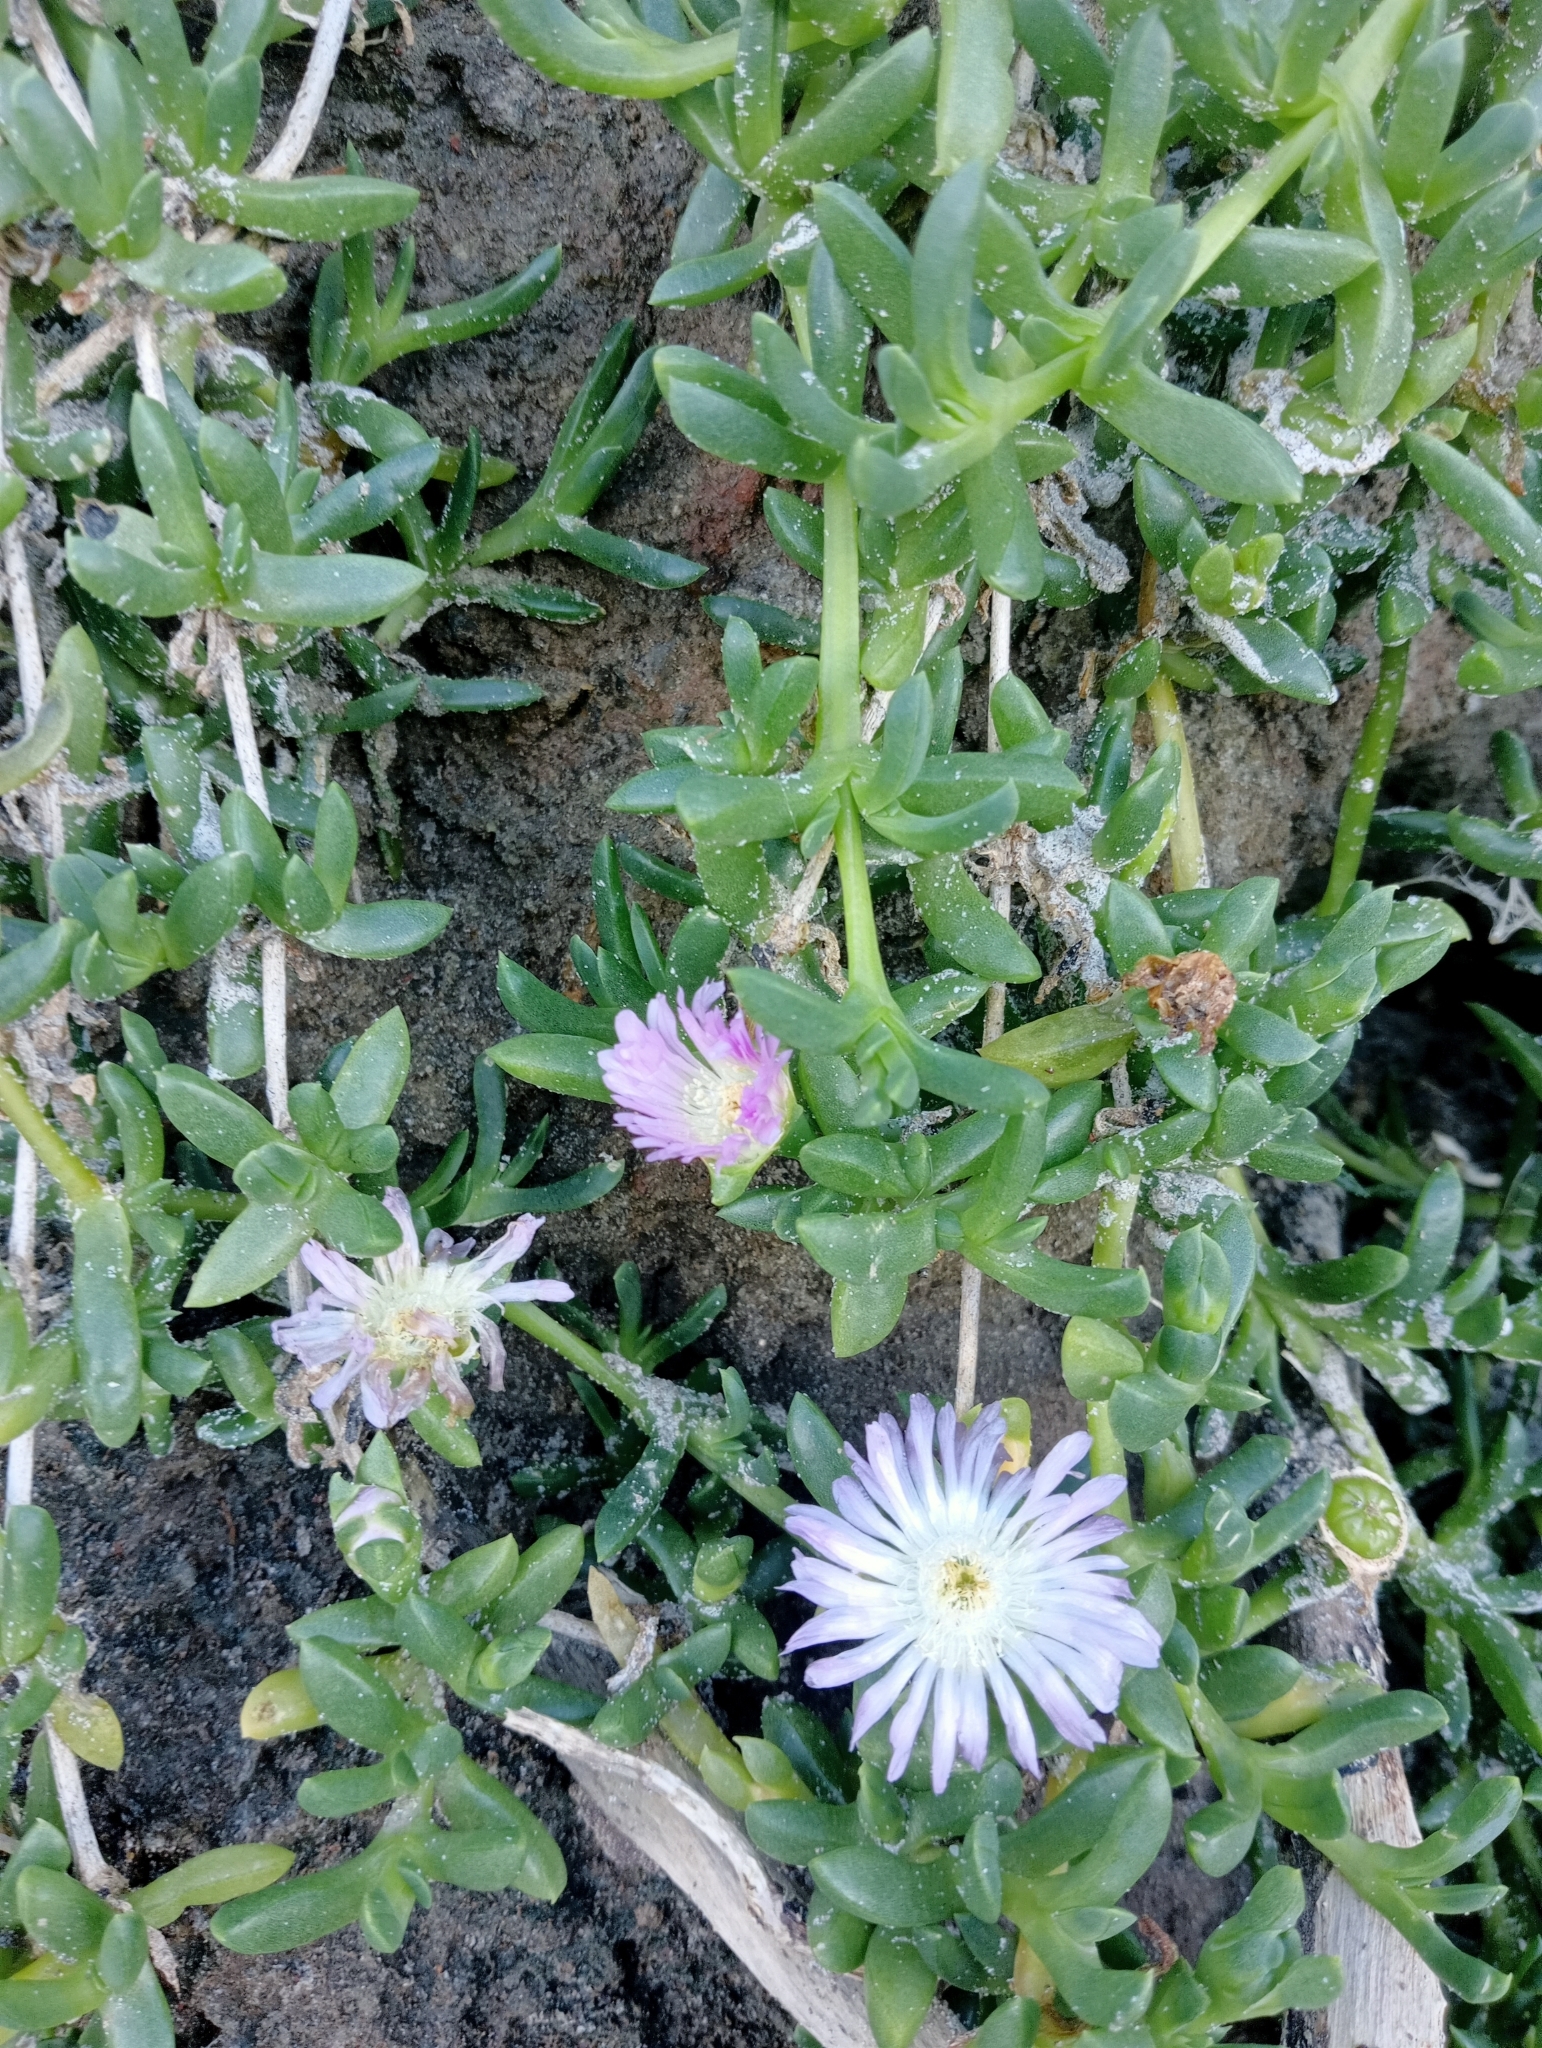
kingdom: Plantae
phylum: Tracheophyta
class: Magnoliopsida
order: Caryophyllales
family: Aizoaceae
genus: Disphyma
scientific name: Disphyma australe
